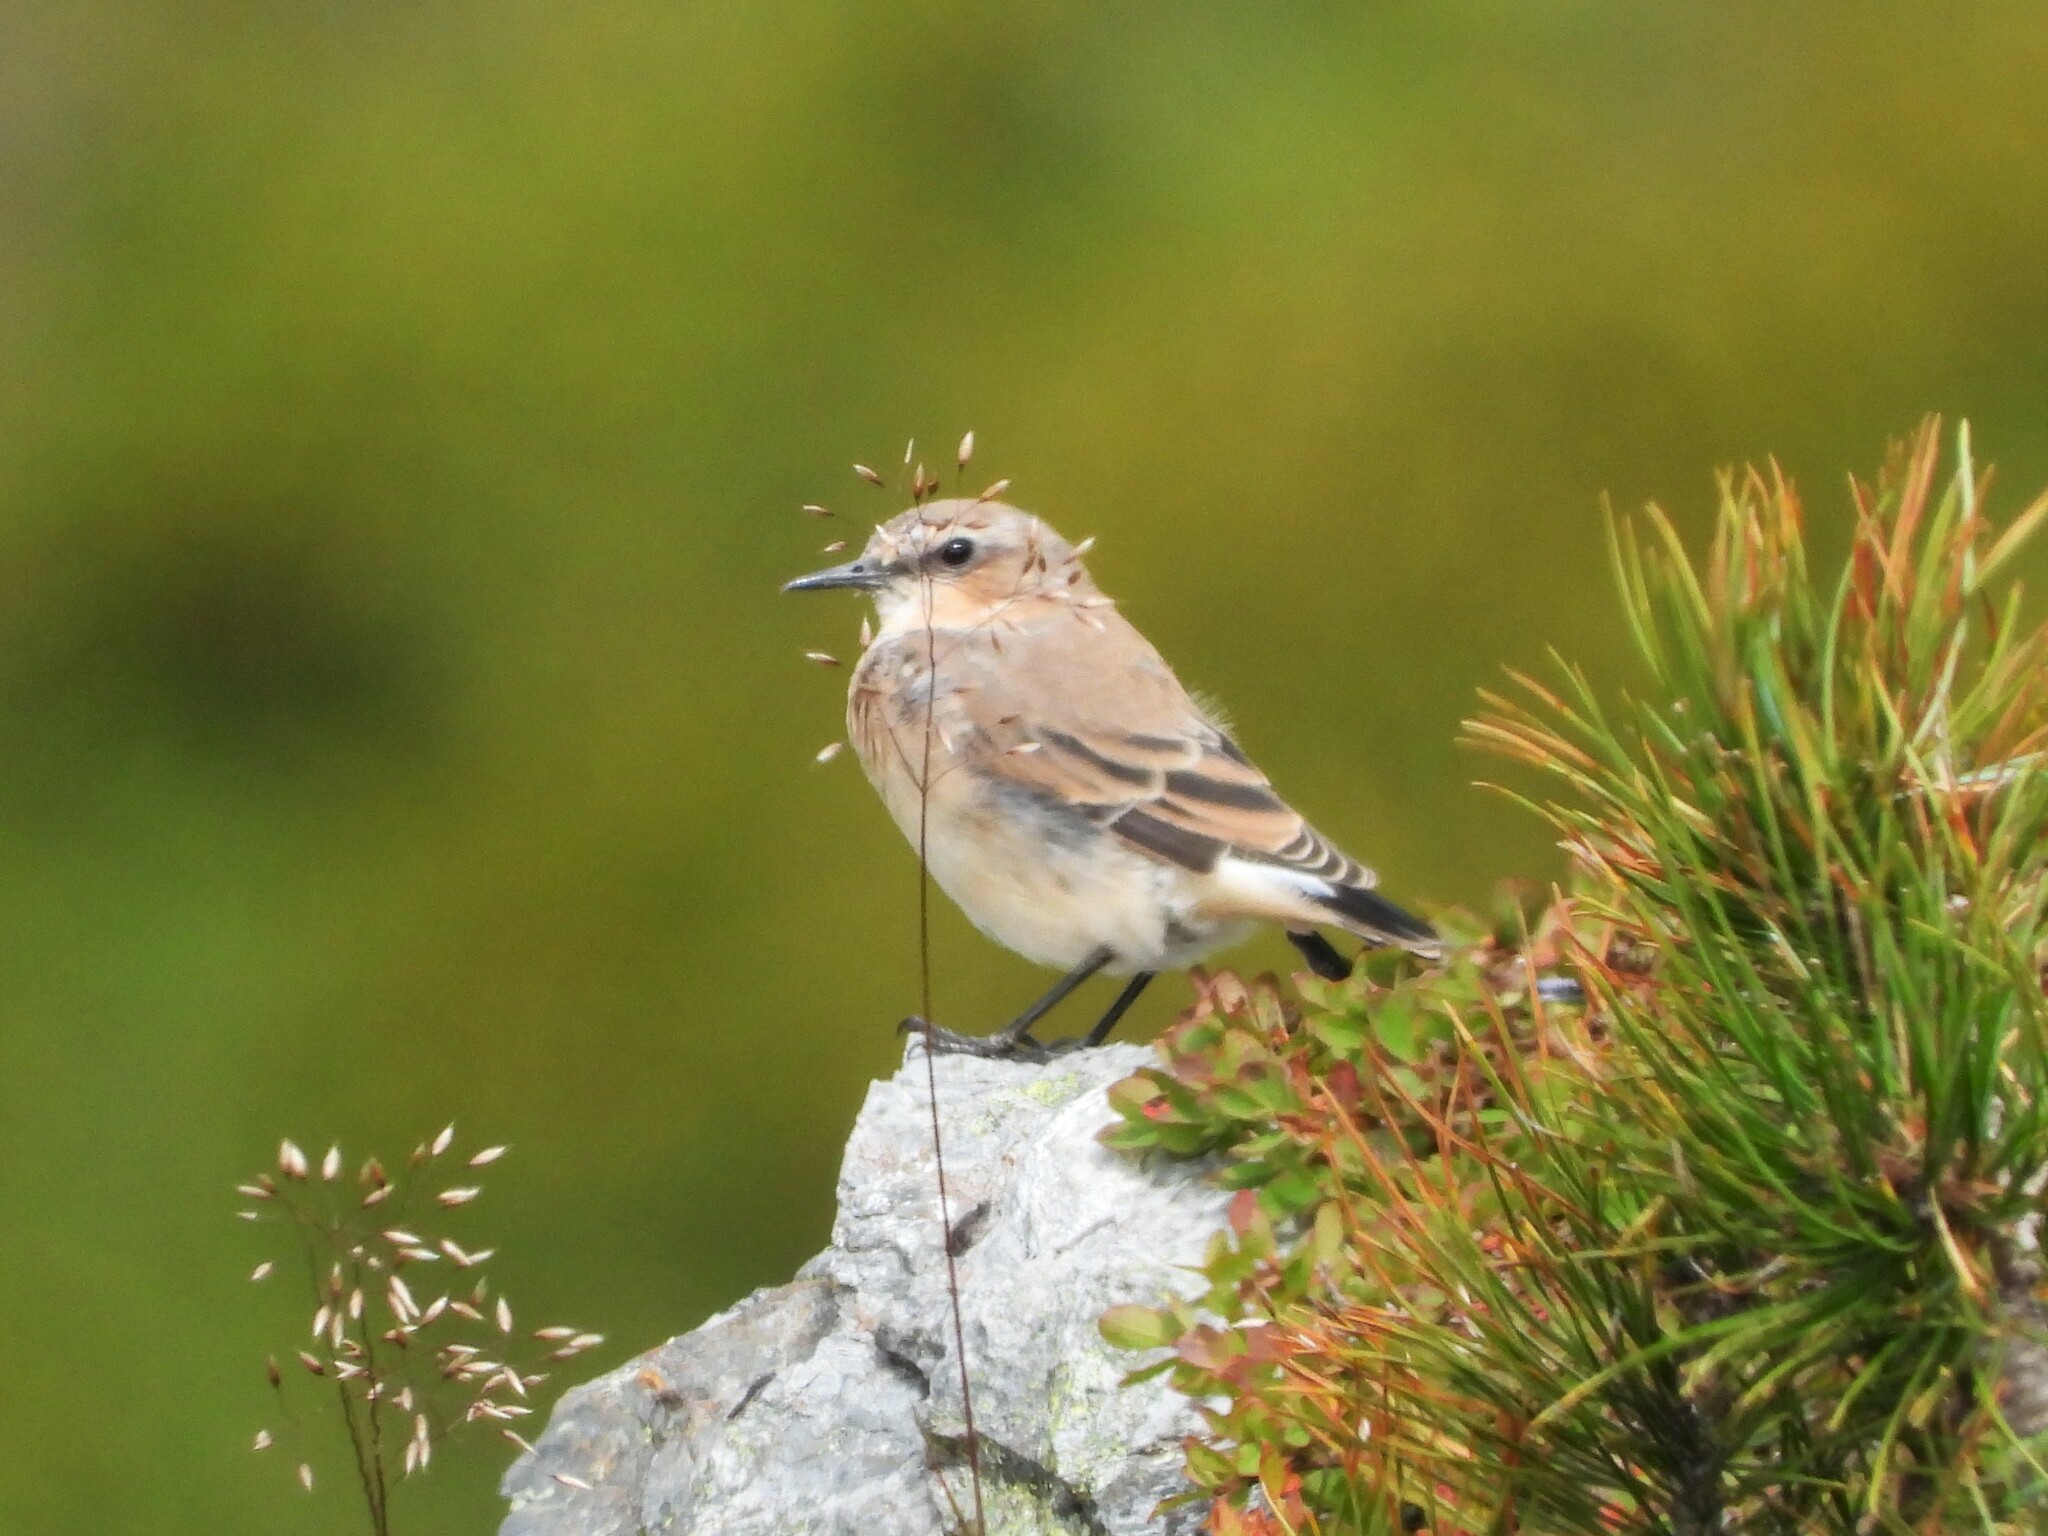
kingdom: Animalia
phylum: Chordata
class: Aves
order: Passeriformes
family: Muscicapidae
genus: Oenanthe
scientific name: Oenanthe oenanthe
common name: Northern wheatear
